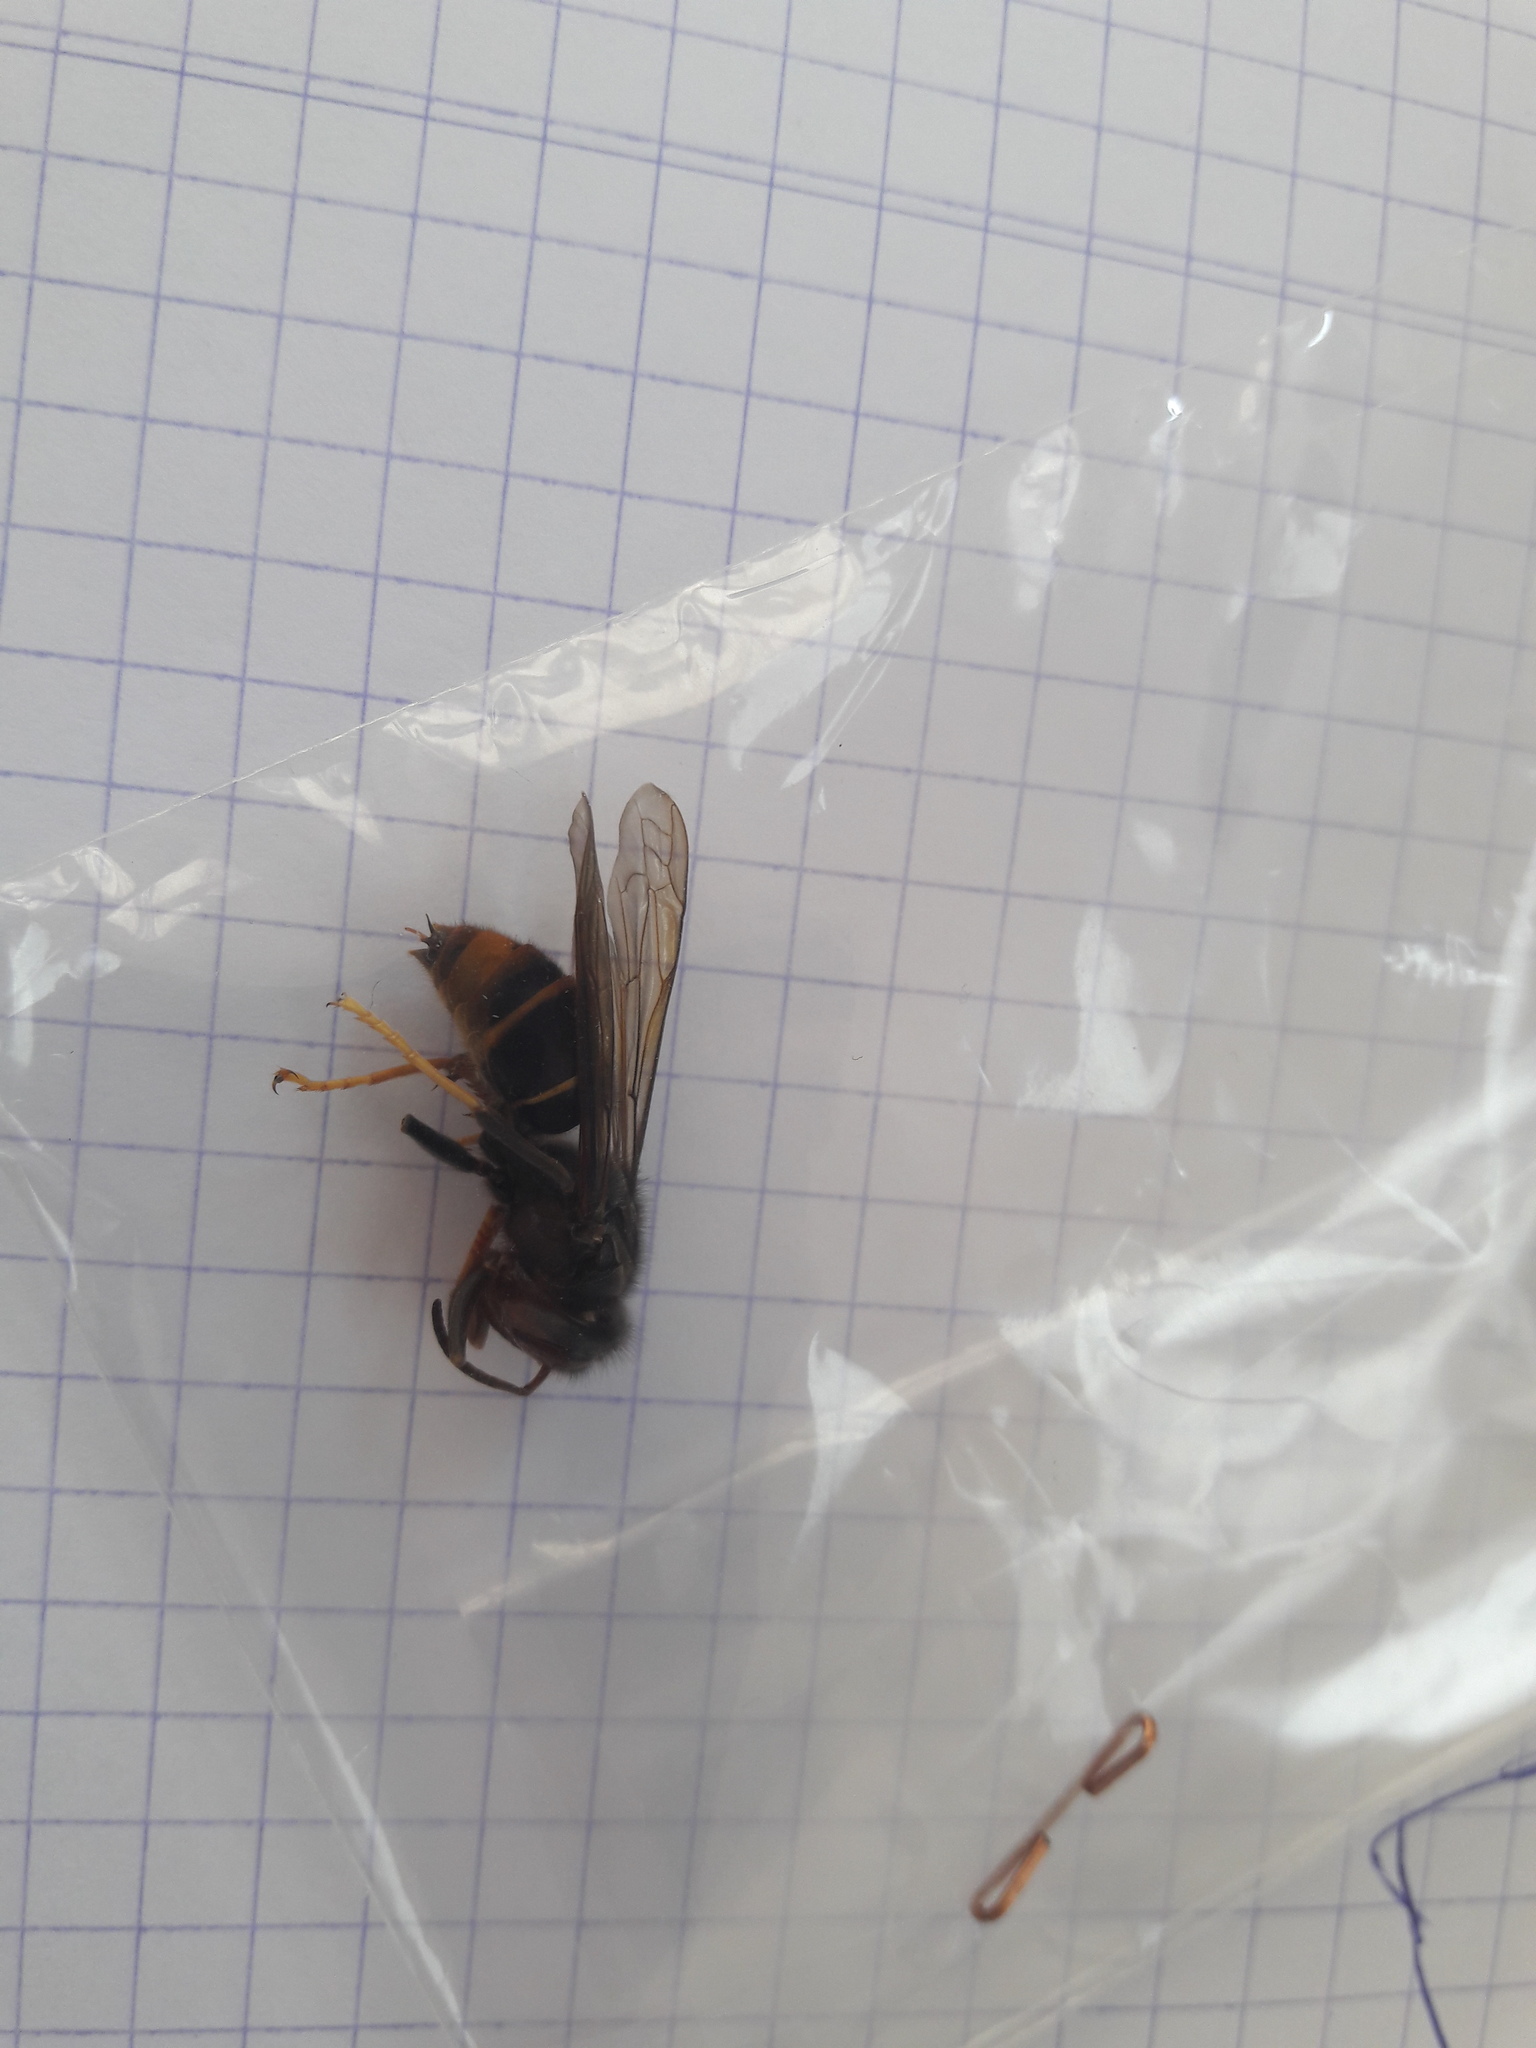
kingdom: Animalia
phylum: Arthropoda
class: Insecta
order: Hymenoptera
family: Vespidae
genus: Vespa
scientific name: Vespa velutina
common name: Asian hornet
